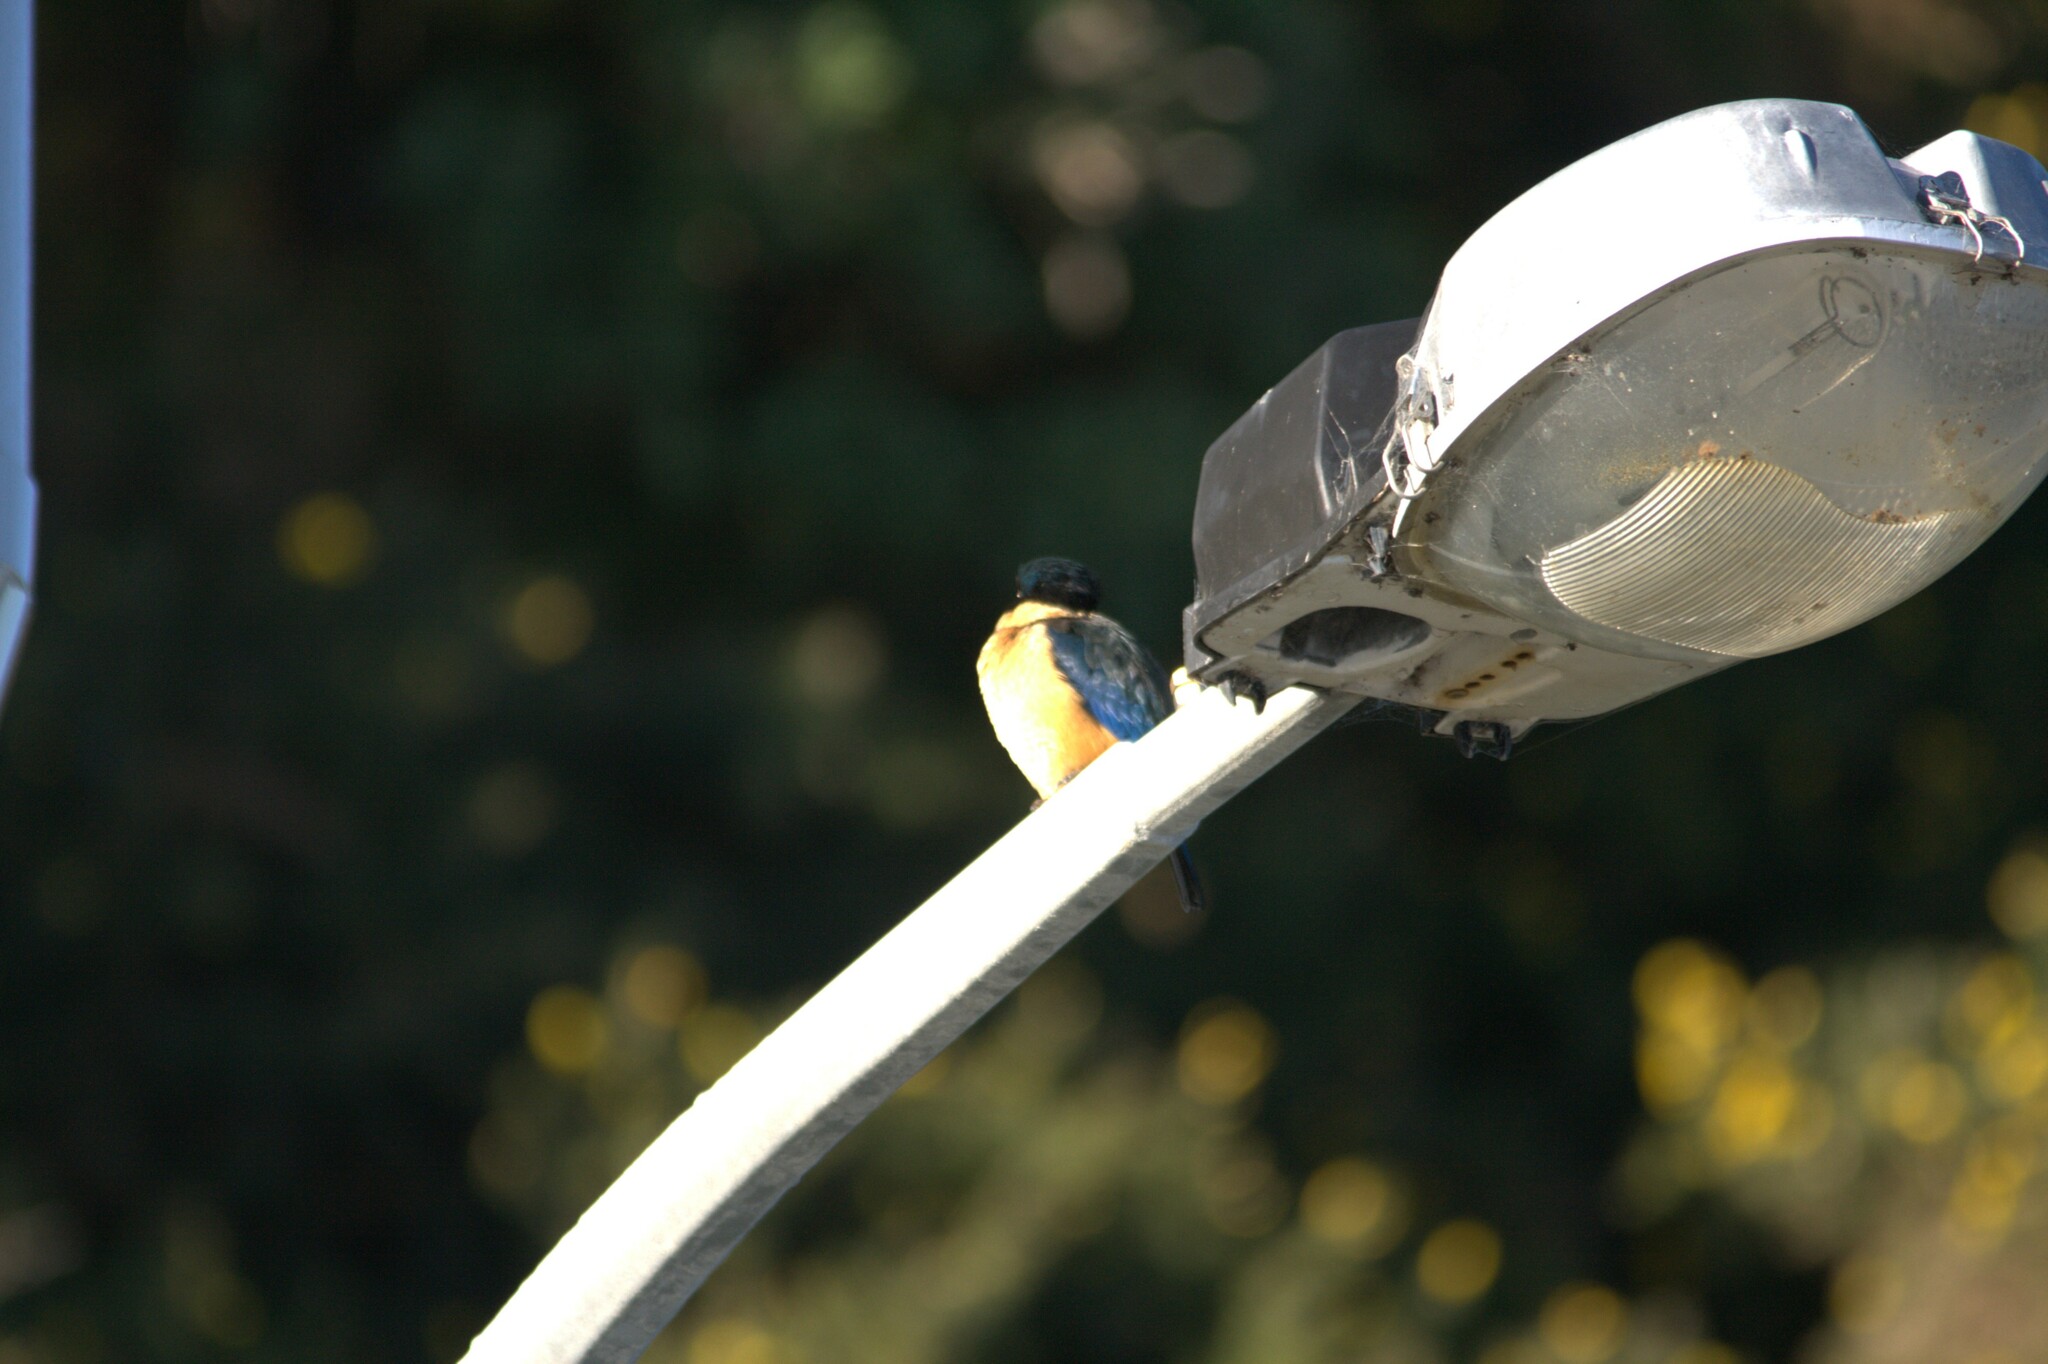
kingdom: Animalia
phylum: Chordata
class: Aves
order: Coraciiformes
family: Alcedinidae
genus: Todiramphus
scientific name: Todiramphus sanctus
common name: Sacred kingfisher
